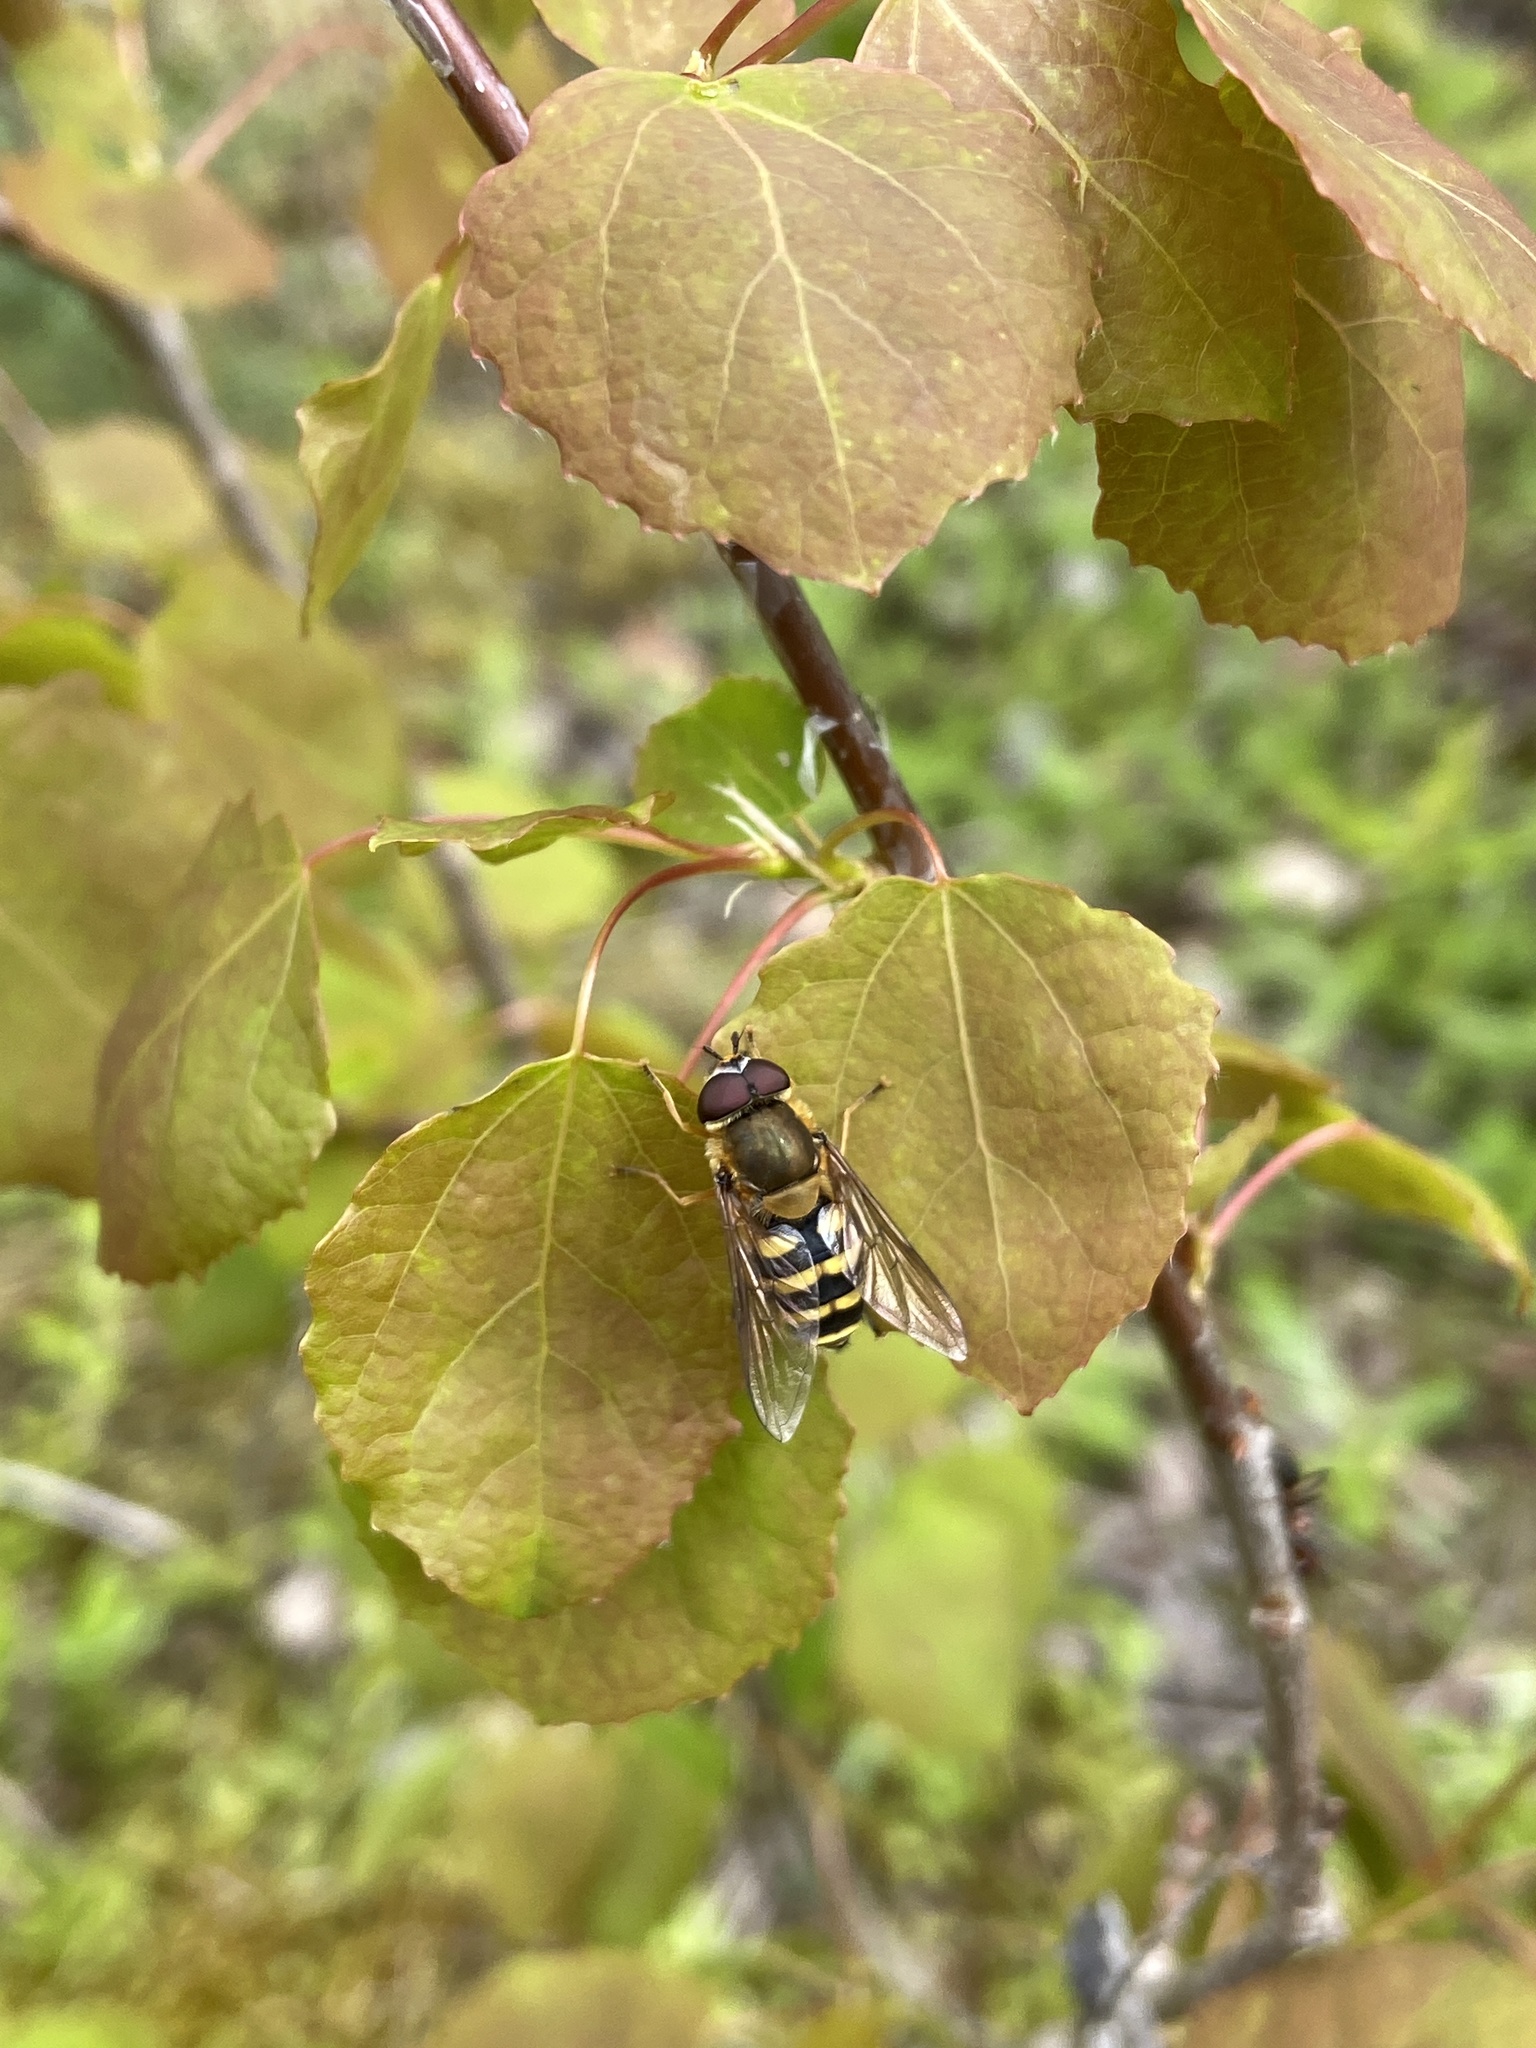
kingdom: Animalia
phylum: Arthropoda
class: Insecta
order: Diptera
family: Syrphidae
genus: Syrphus
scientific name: Syrphus
